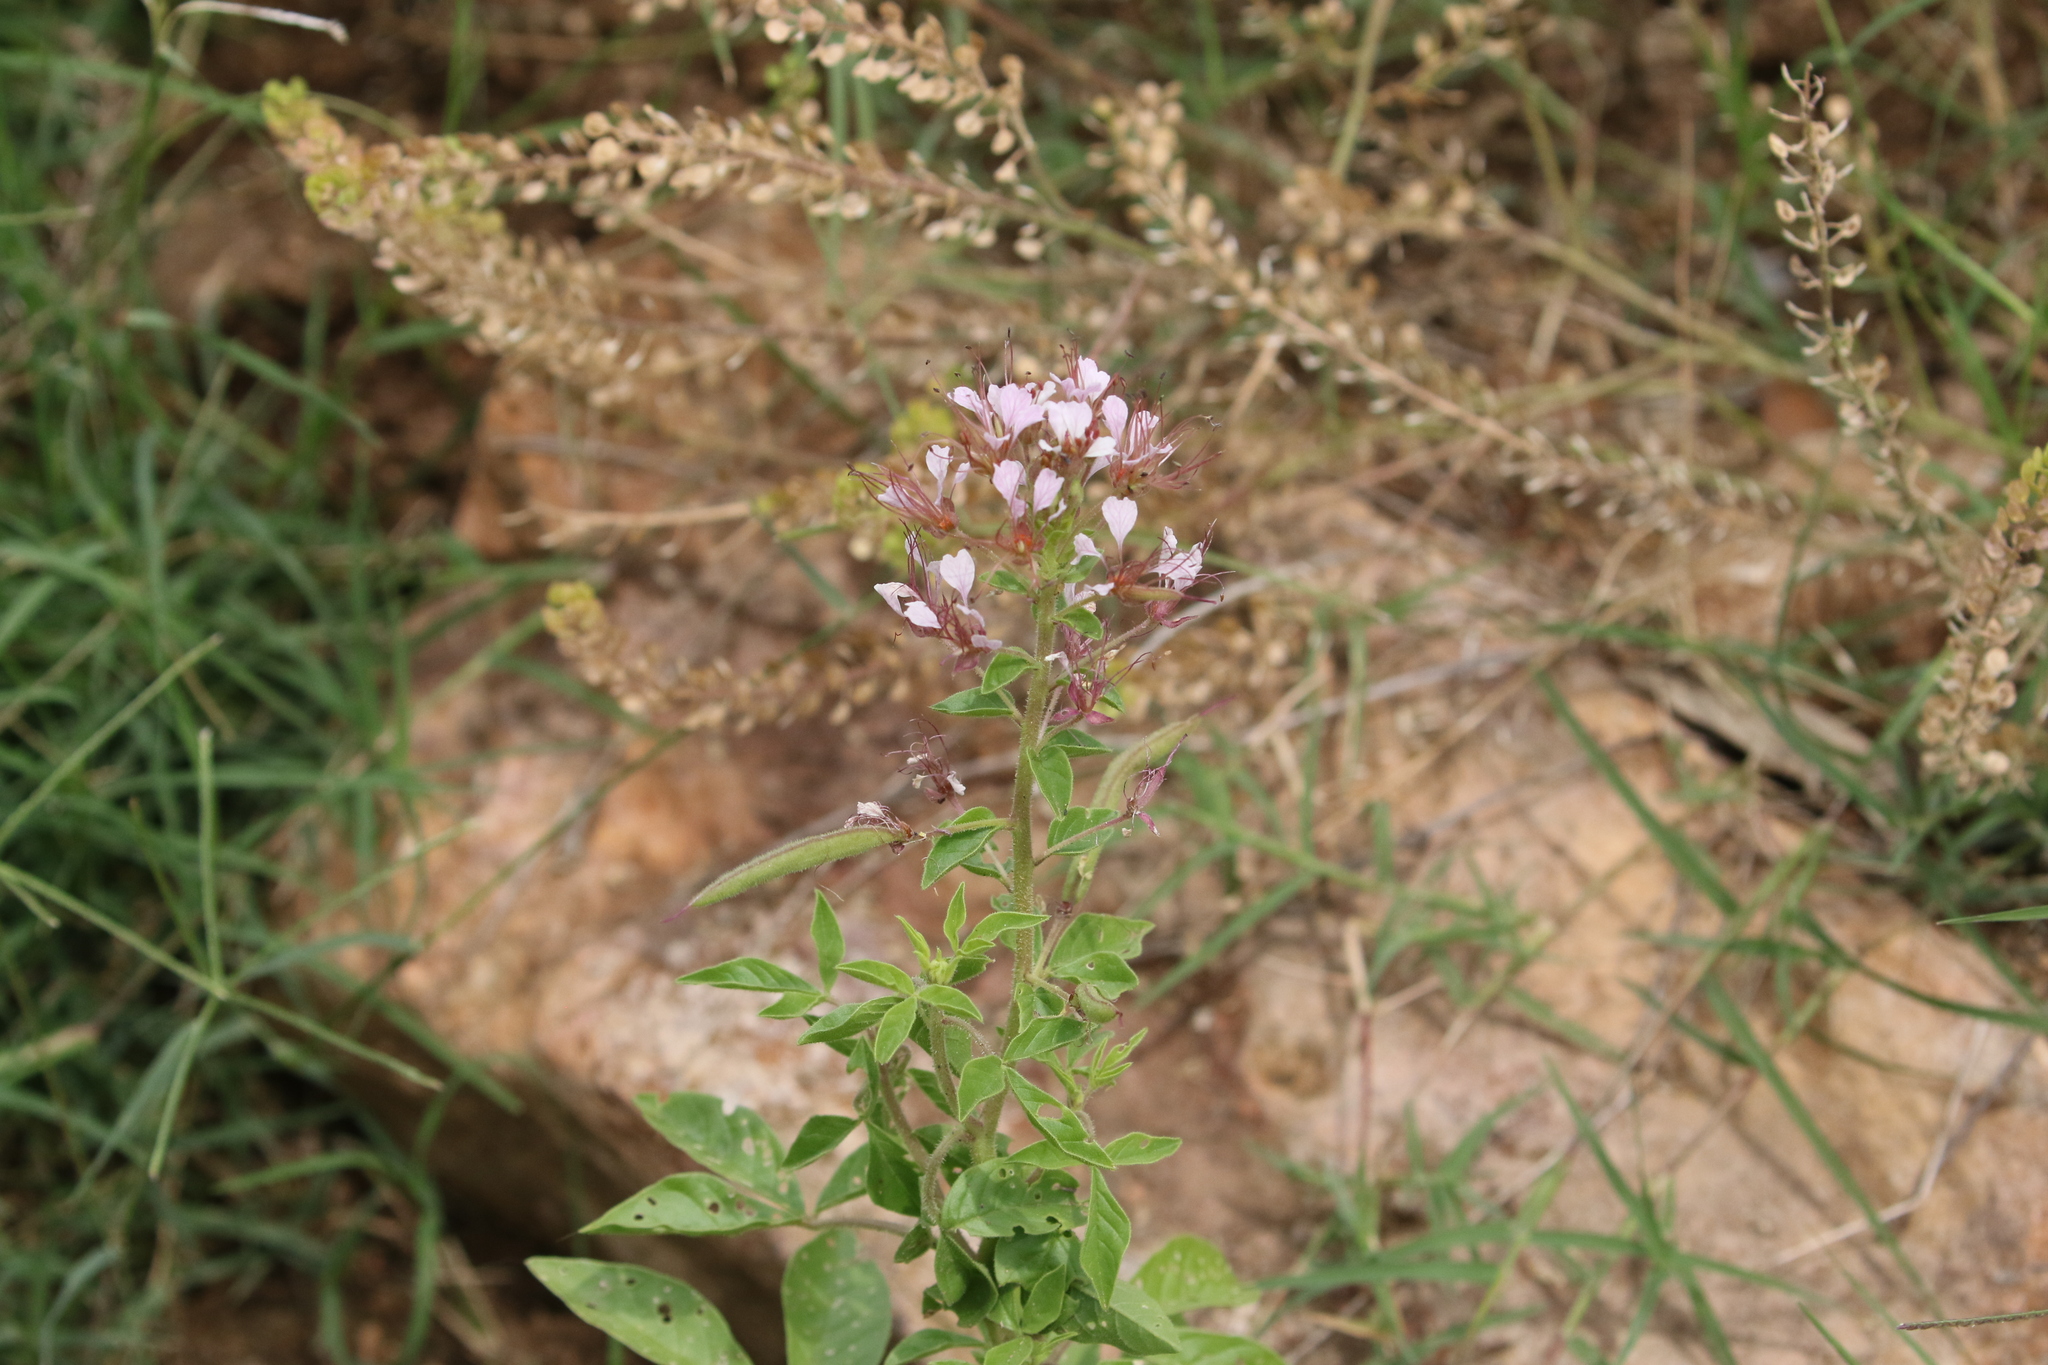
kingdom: Plantae
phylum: Tracheophyta
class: Magnoliopsida
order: Brassicales
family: Cleomaceae
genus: Polanisia
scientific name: Polanisia dodecandra
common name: Clammyweed
